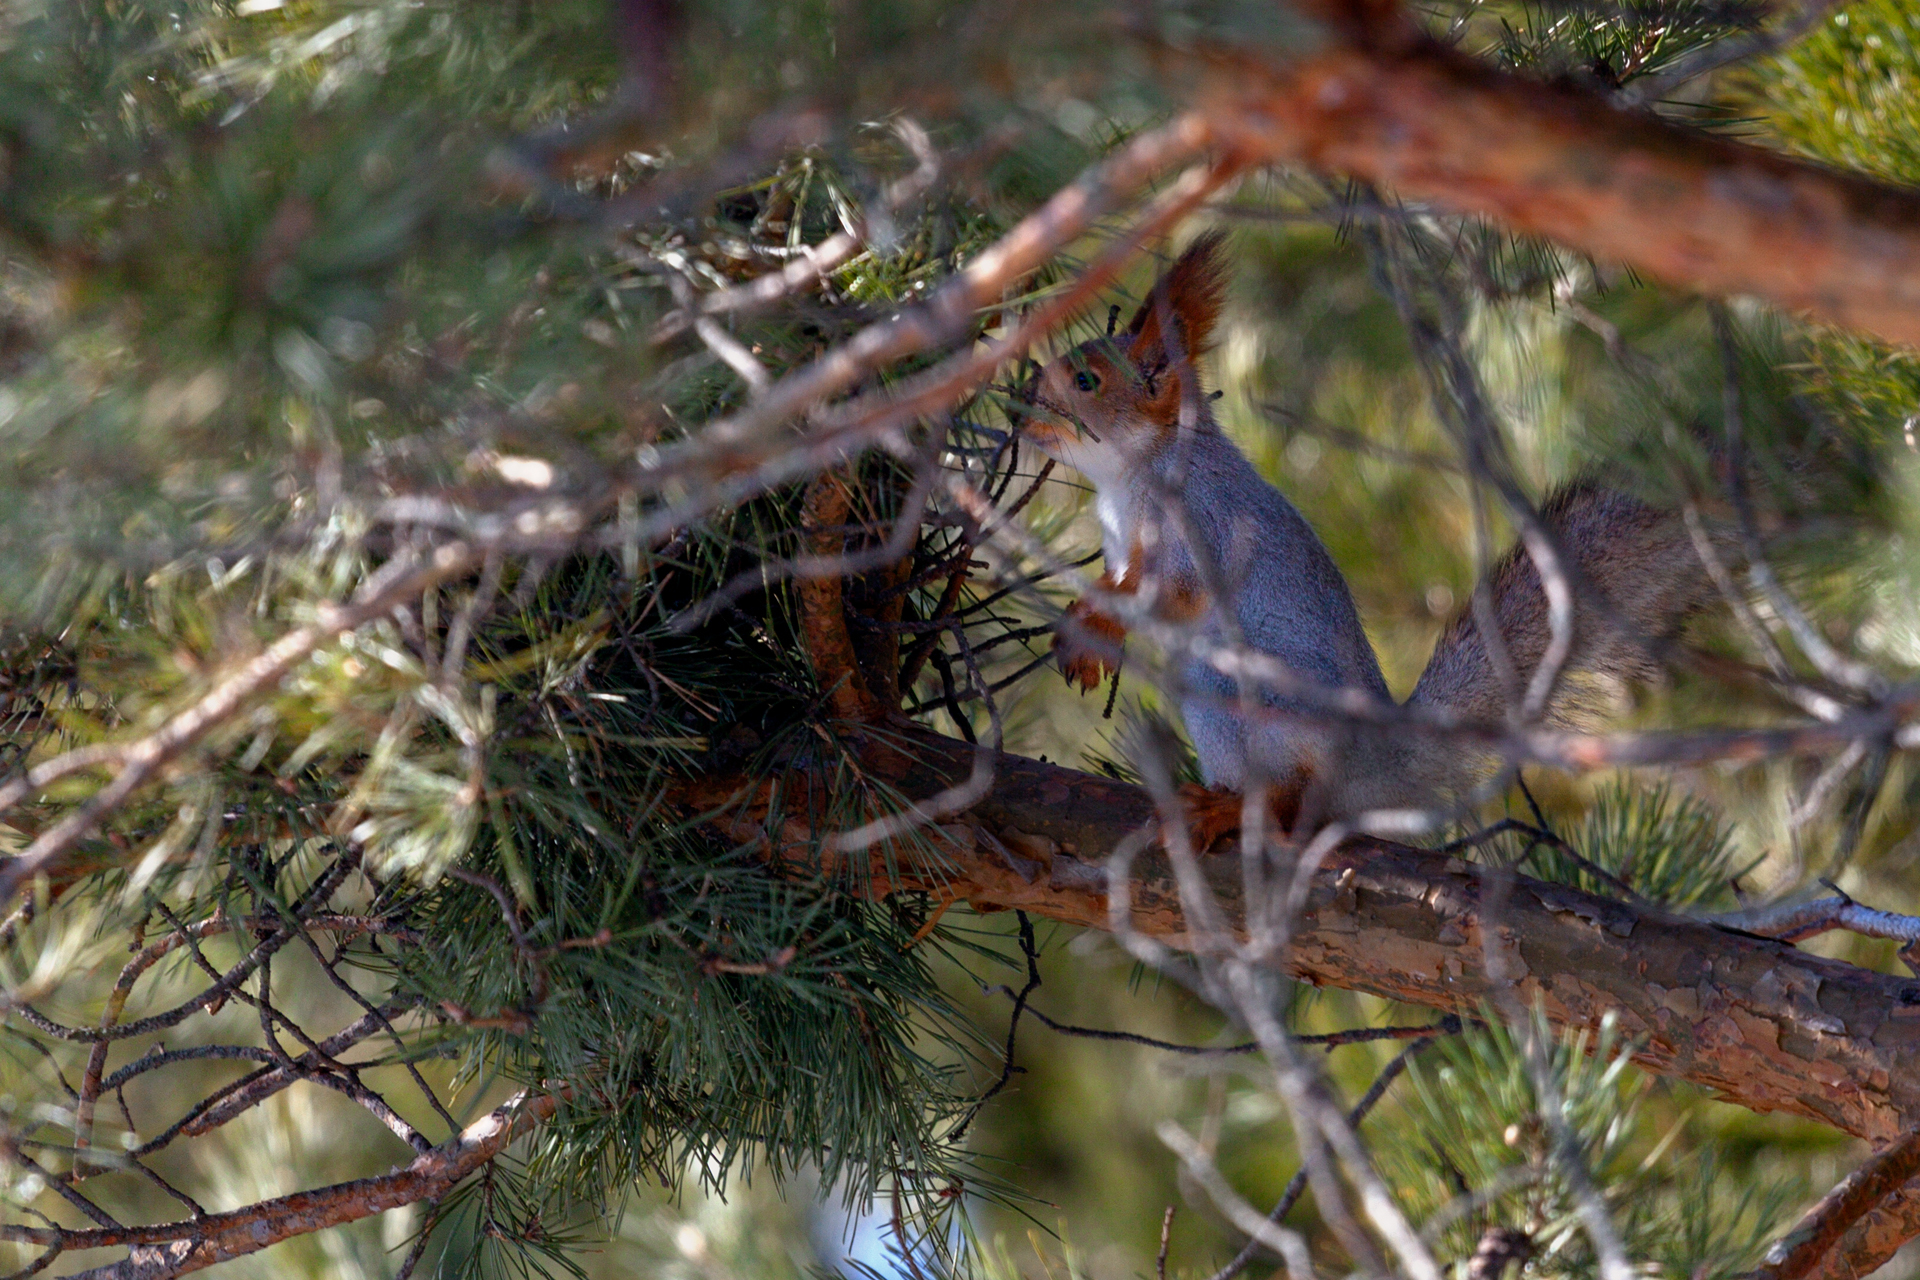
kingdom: Animalia
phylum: Chordata
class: Mammalia
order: Rodentia
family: Sciuridae
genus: Sciurus
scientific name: Sciurus vulgaris
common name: Eurasian red squirrel
